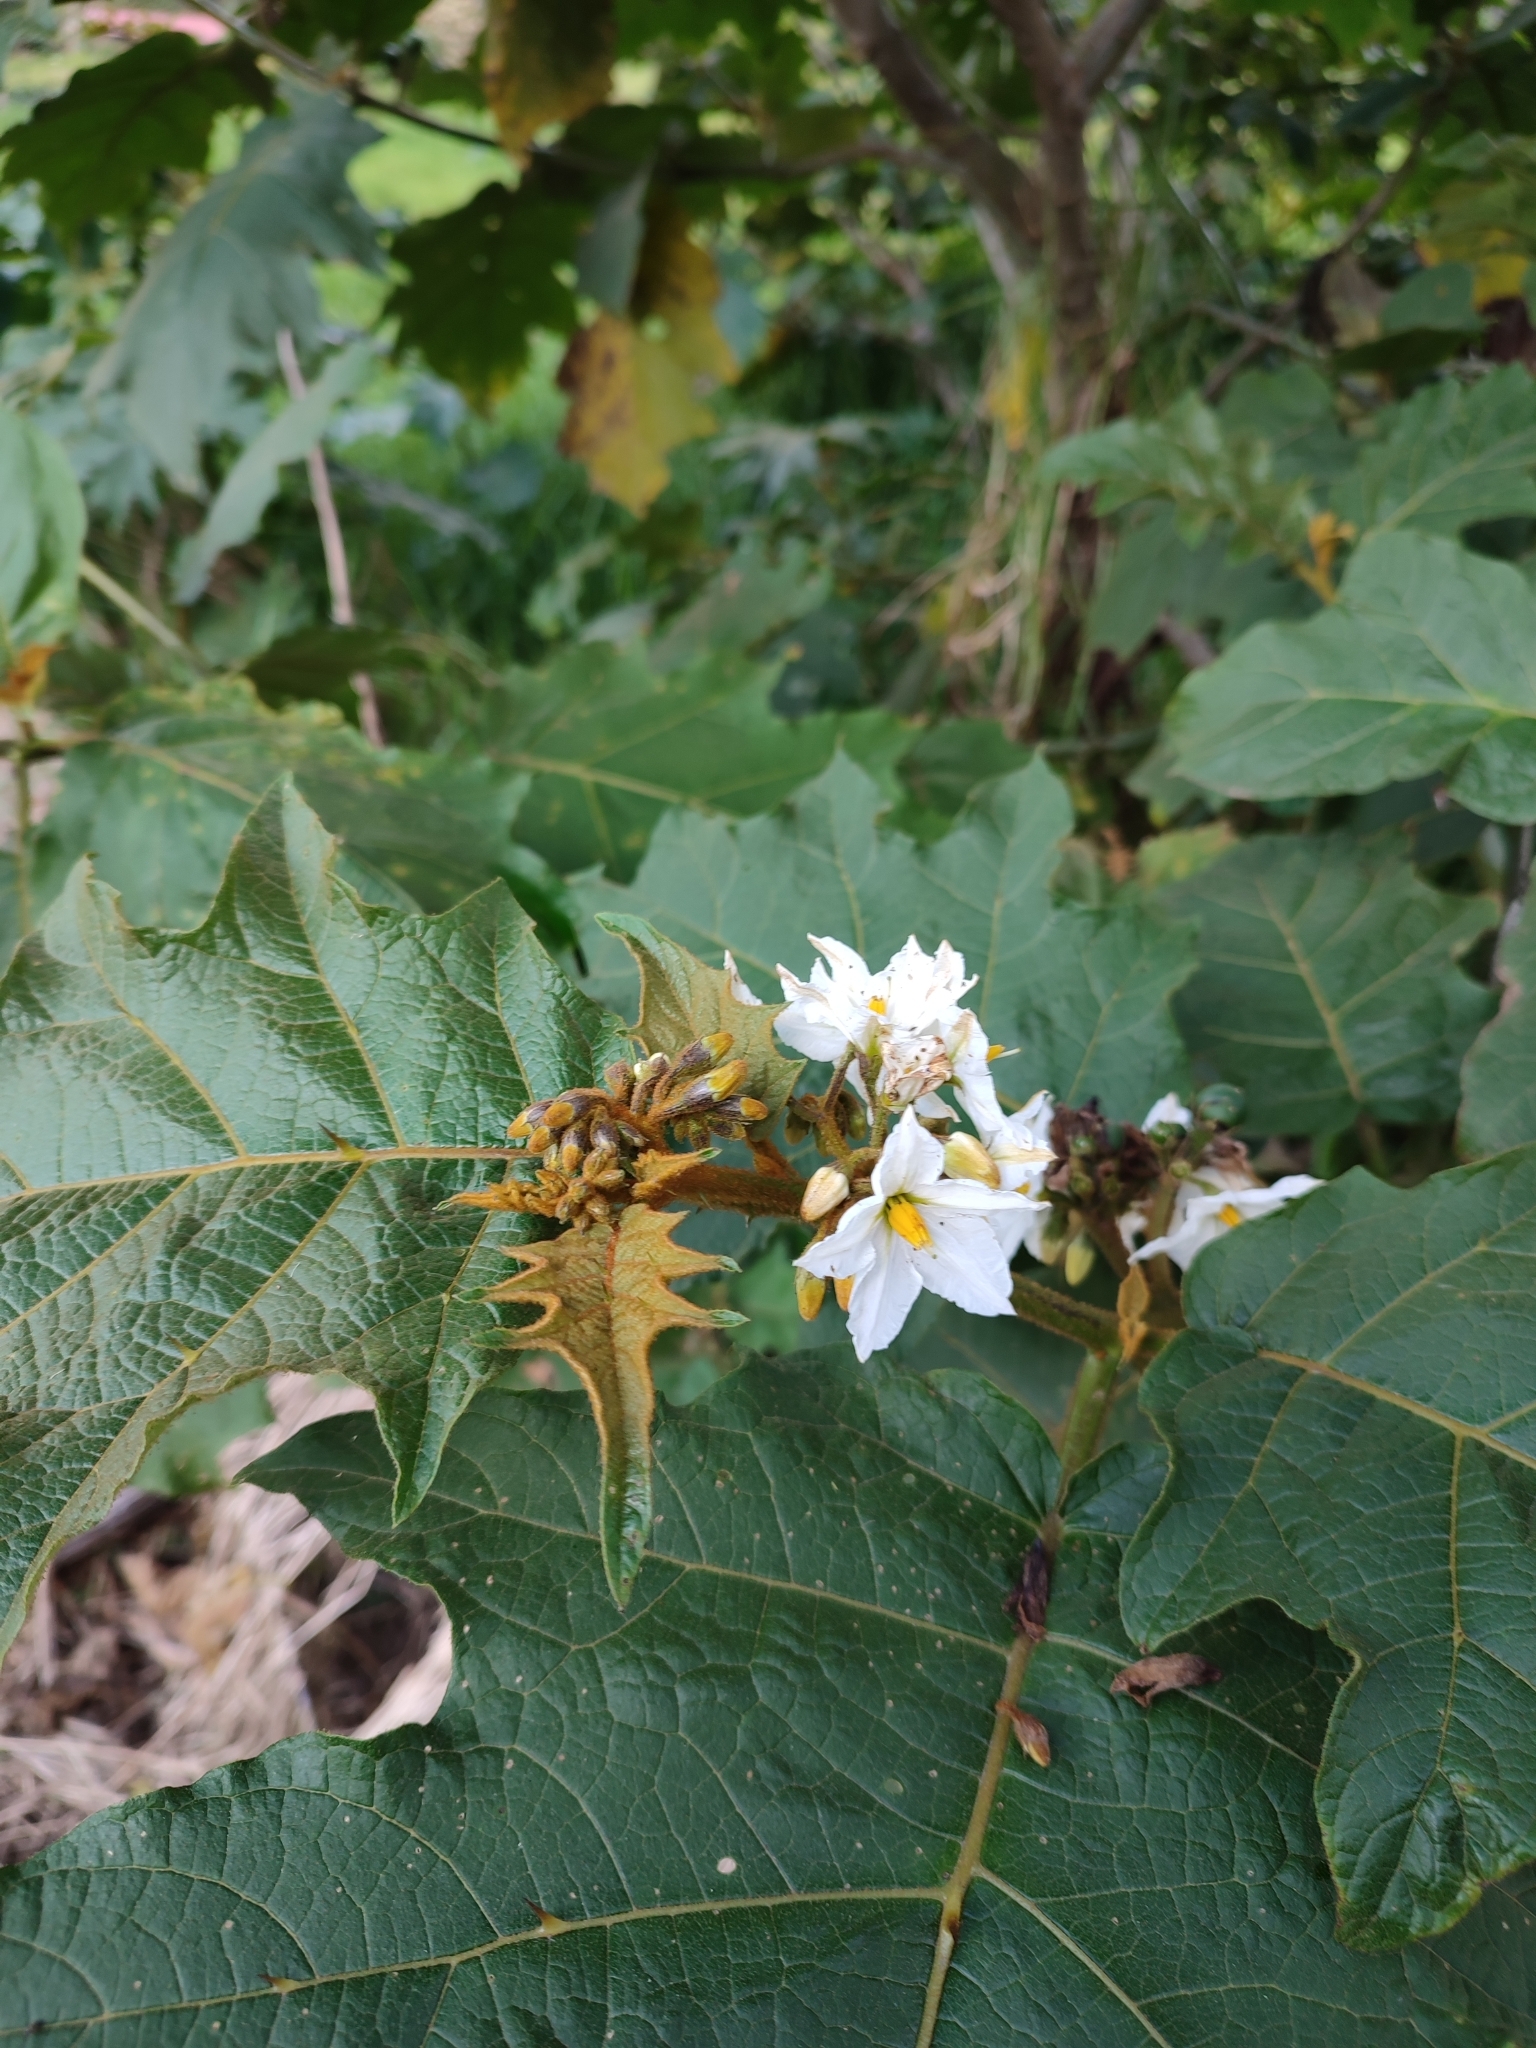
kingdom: Plantae
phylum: Tracheophyta
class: Magnoliopsida
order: Solanales
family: Solanaceae
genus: Solanum
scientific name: Solanum chrysotrichum
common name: Nightshade
